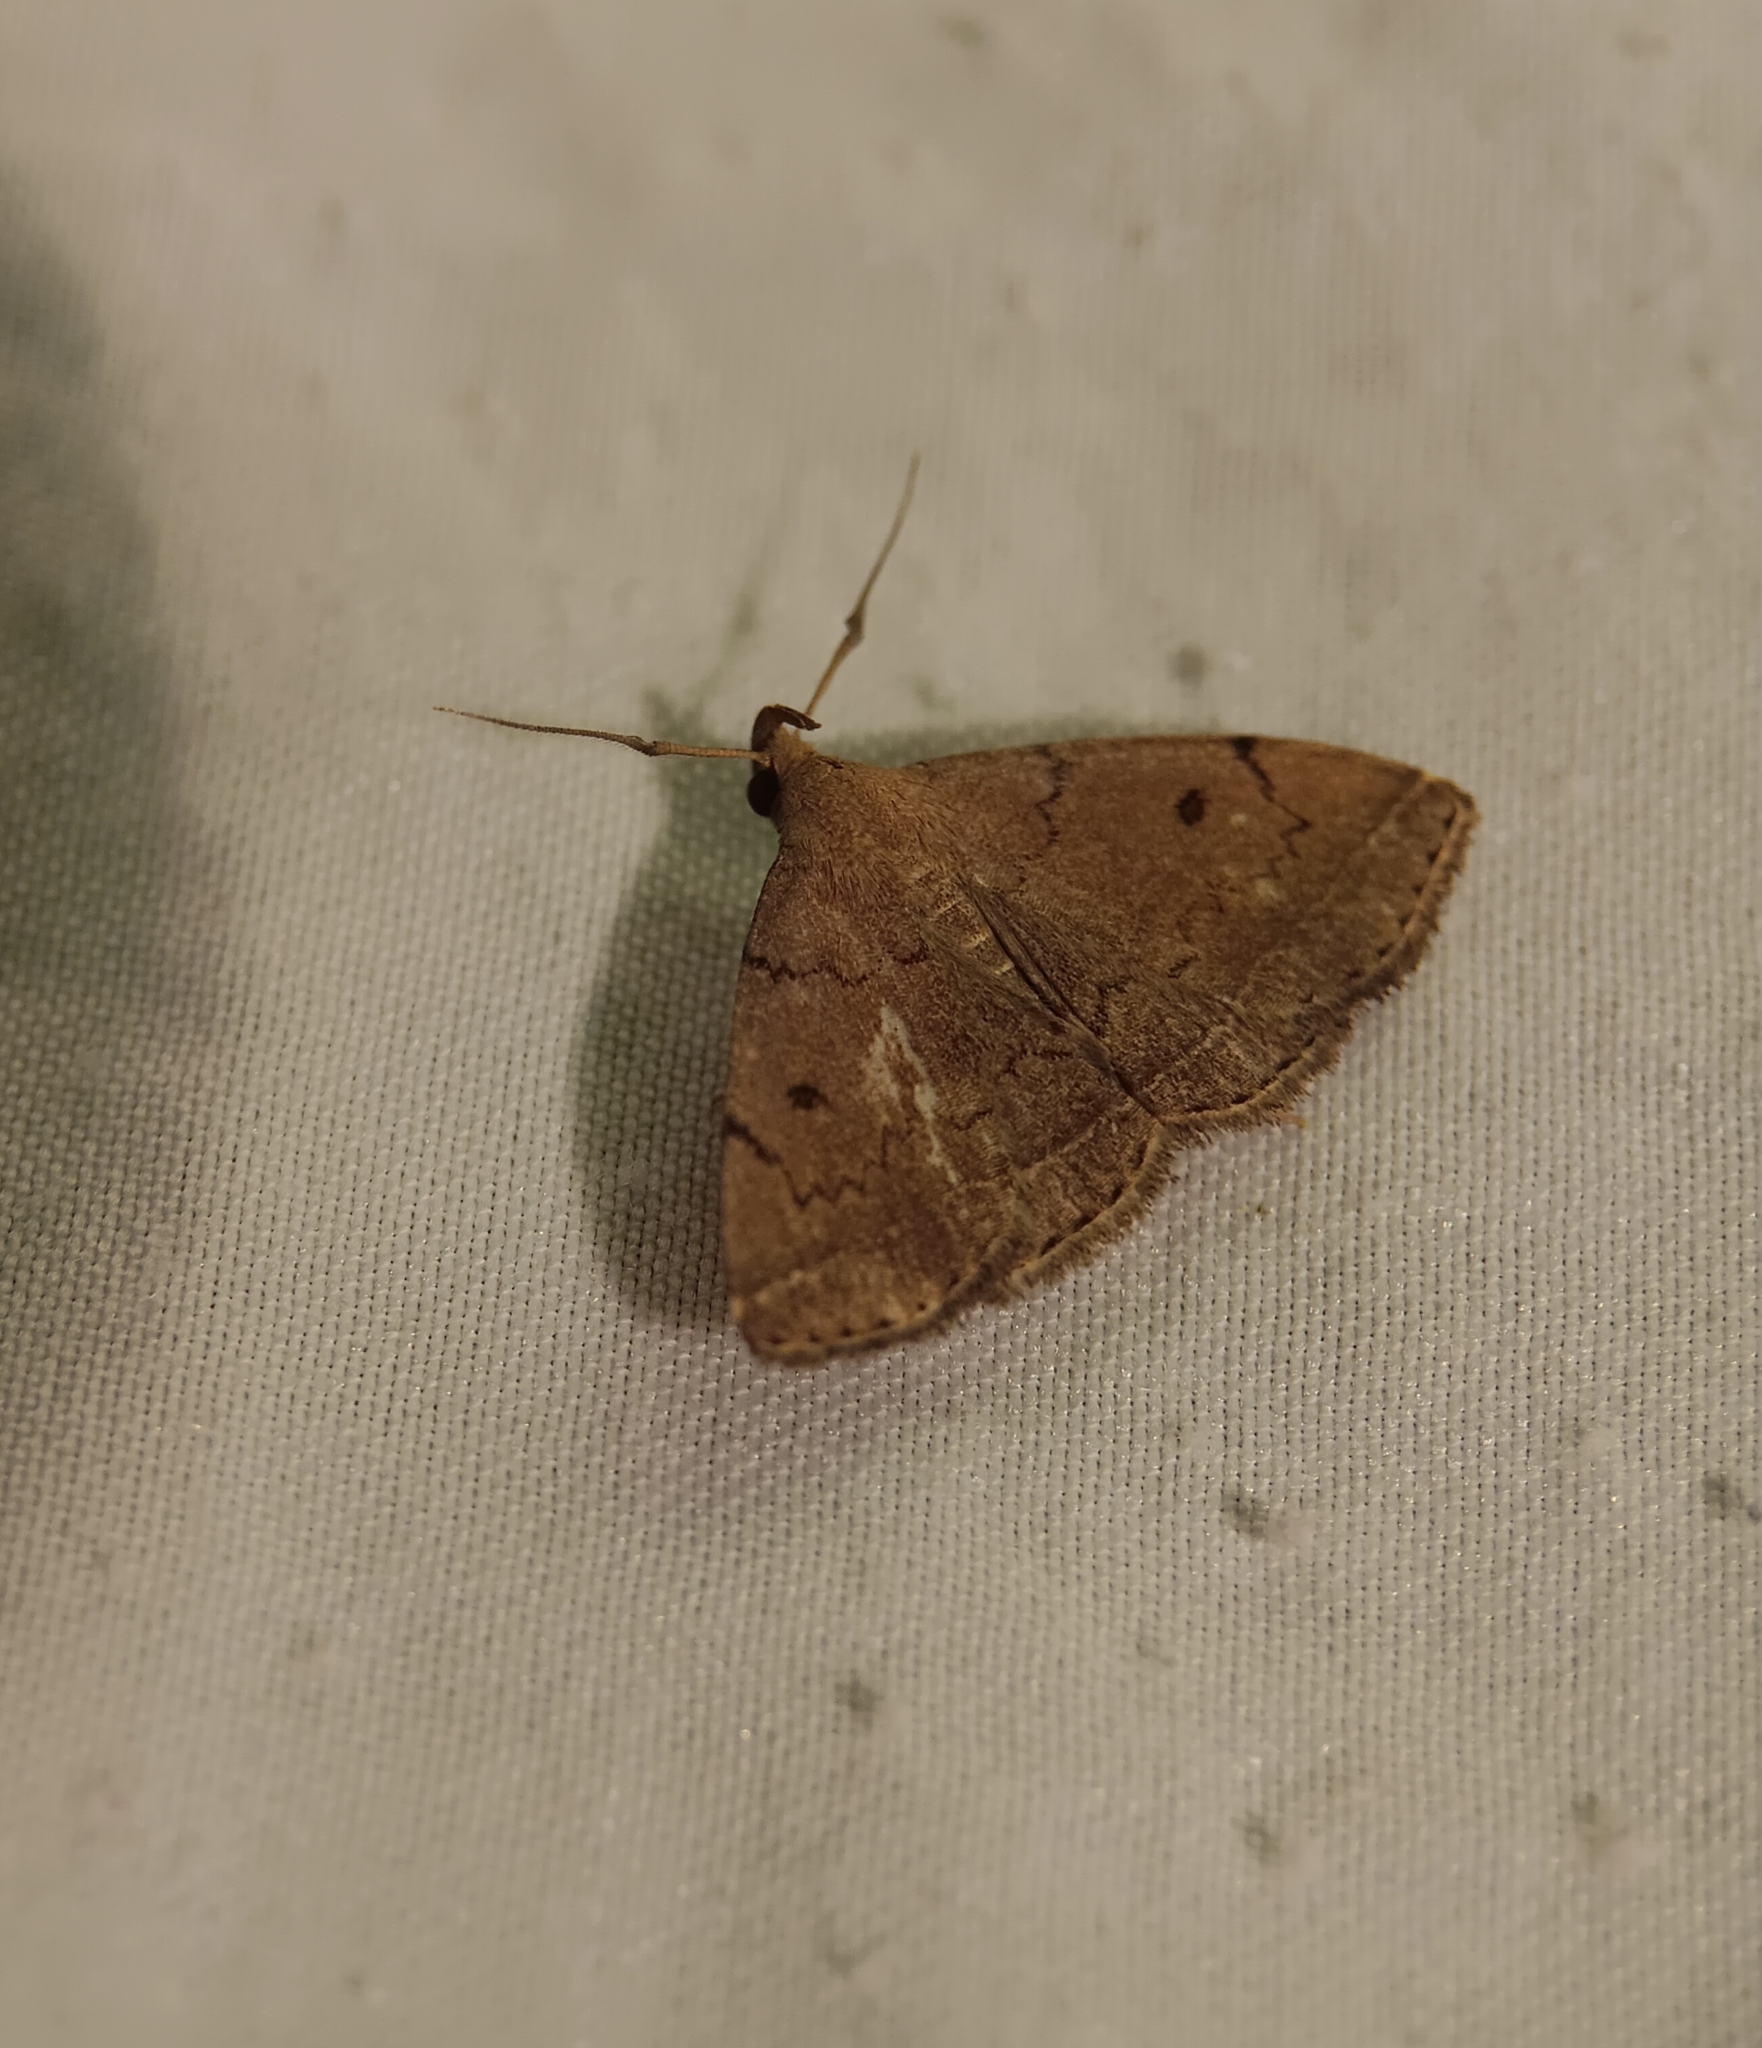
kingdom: Animalia
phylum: Arthropoda
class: Insecta
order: Lepidoptera
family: Erebidae
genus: Zanclognatha
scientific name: Zanclognatha protumnusalis
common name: Complex fan-foot
